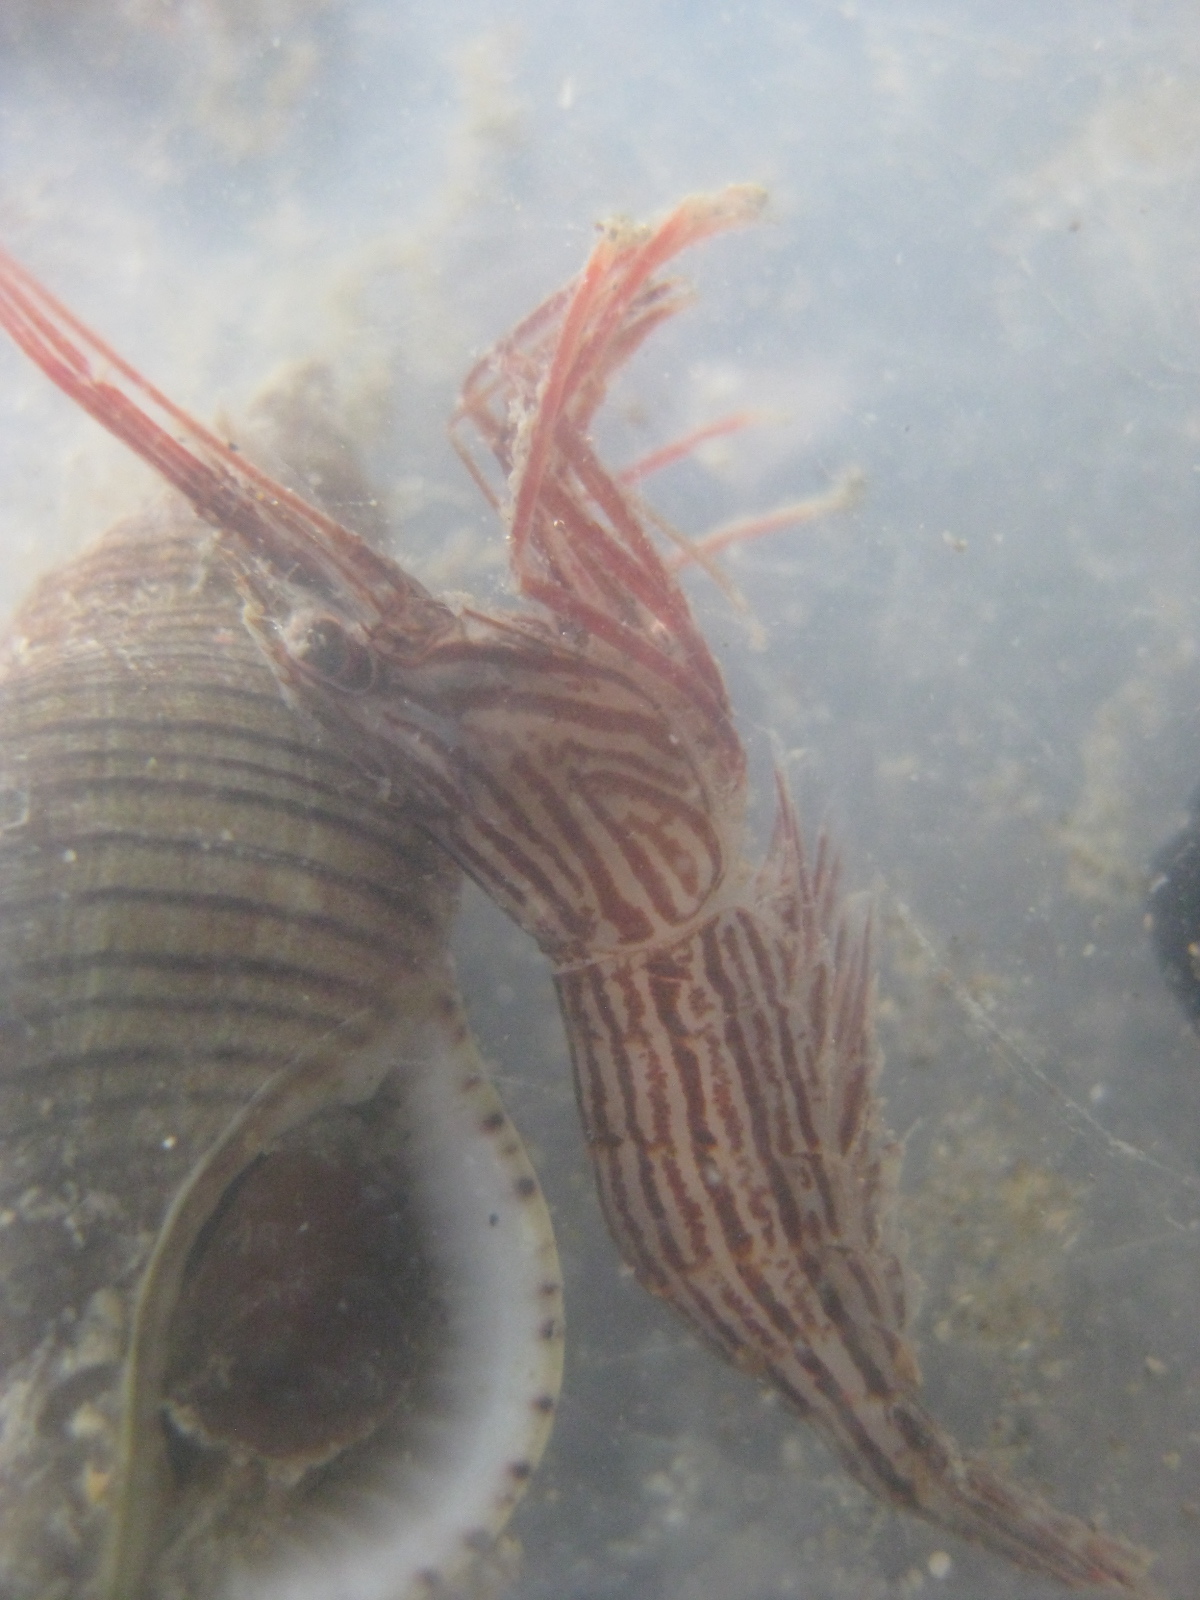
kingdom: Animalia
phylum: Arthropoda
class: Malacostraca
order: Decapoda
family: Lysmatidae
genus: Lysmata
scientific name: Lysmata vittata
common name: Indian lined shrimp
